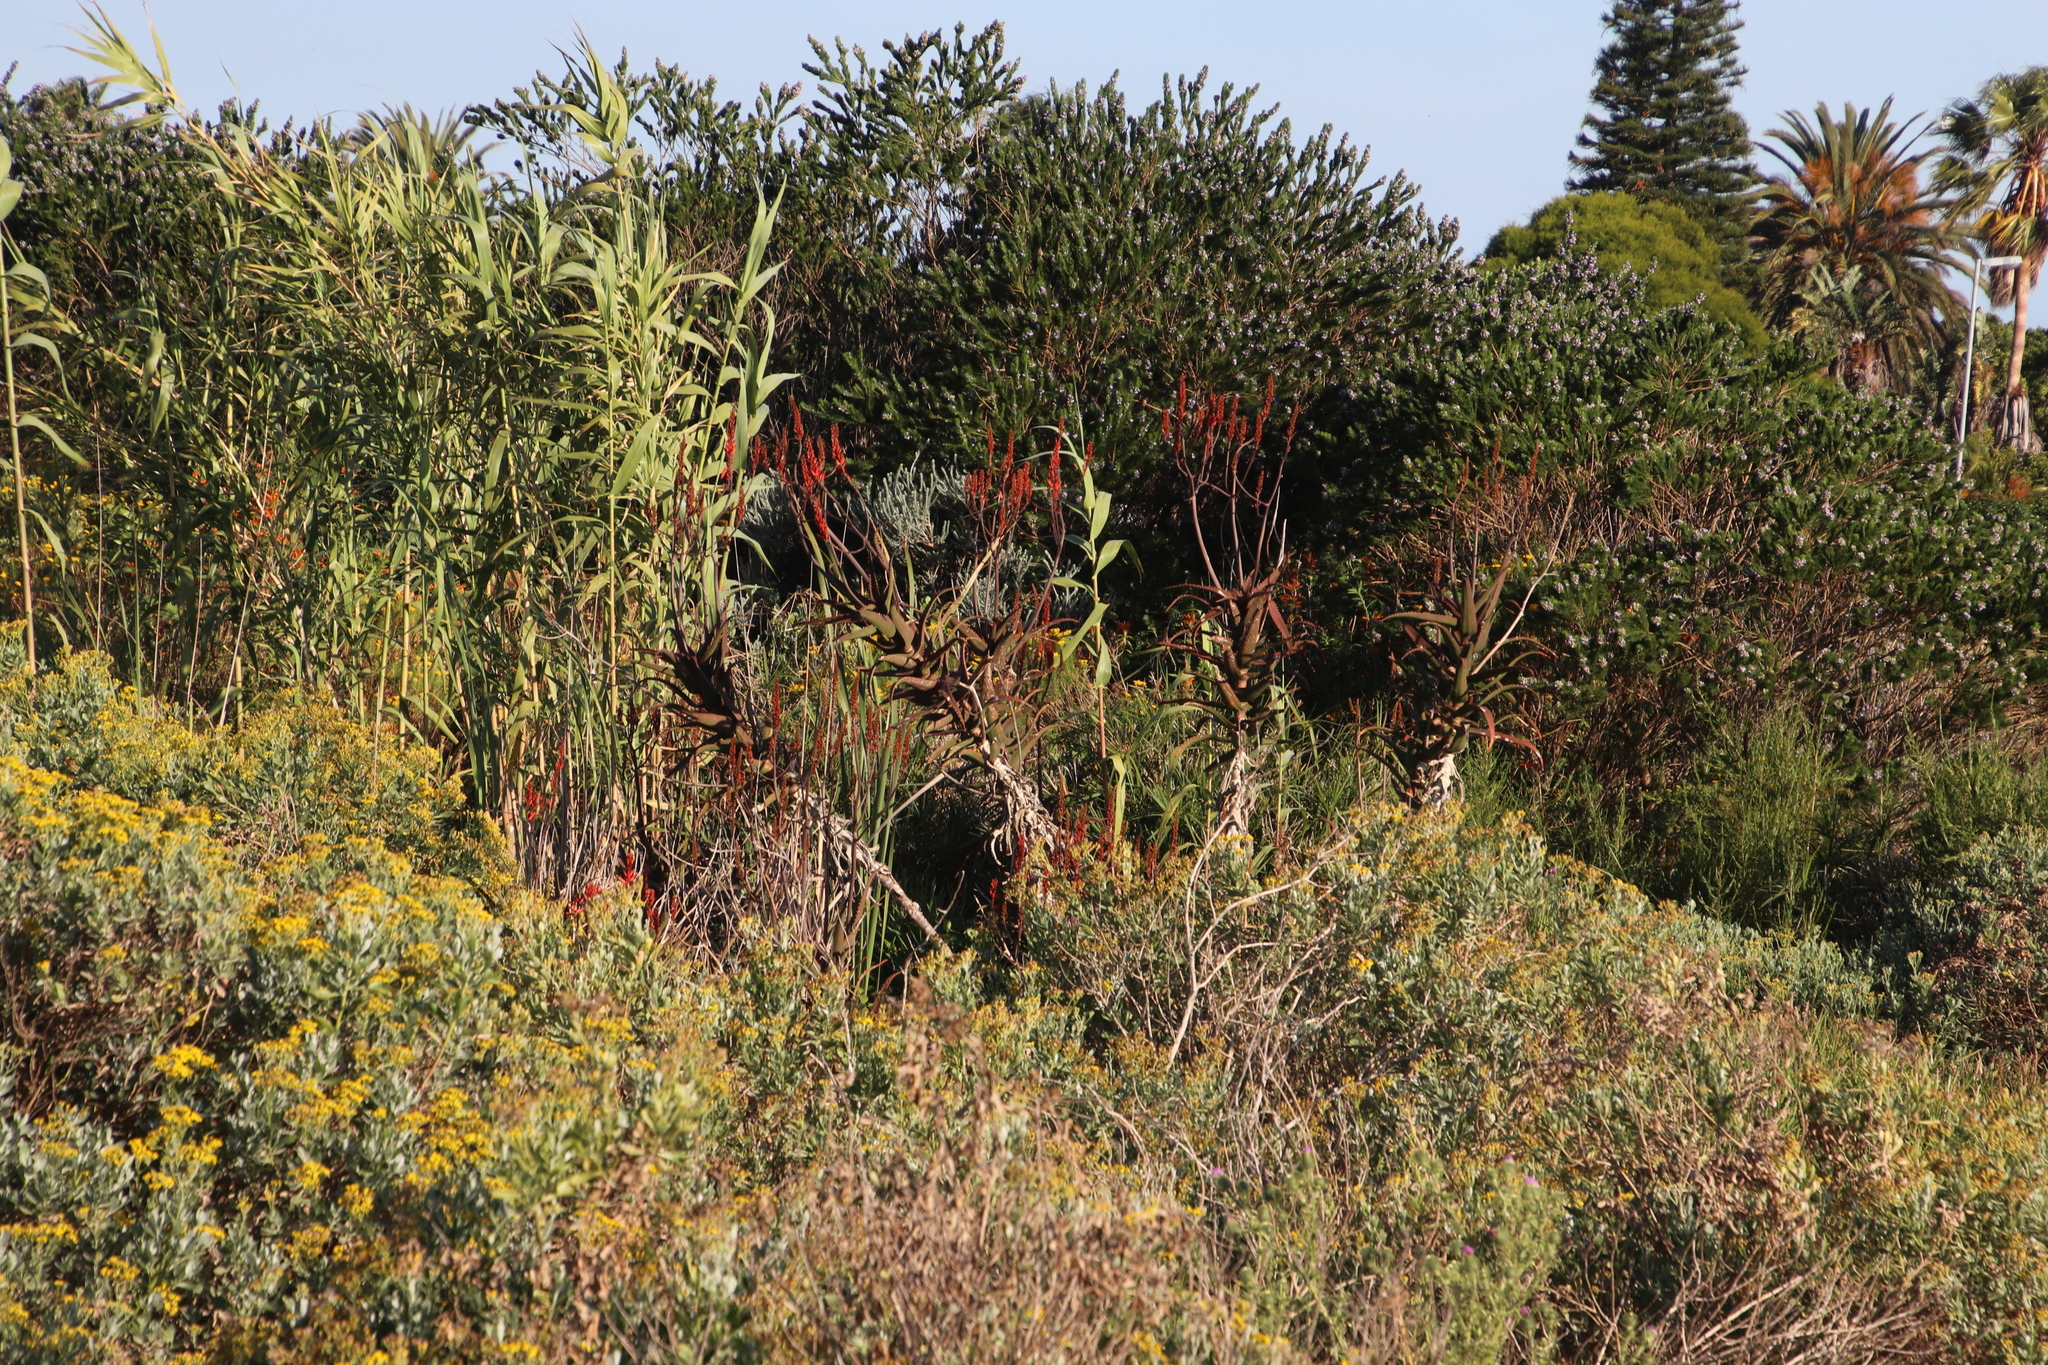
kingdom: Plantae
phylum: Tracheophyta
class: Liliopsida
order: Asparagales
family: Asphodelaceae
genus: Aloe
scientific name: Aloe cameronii
